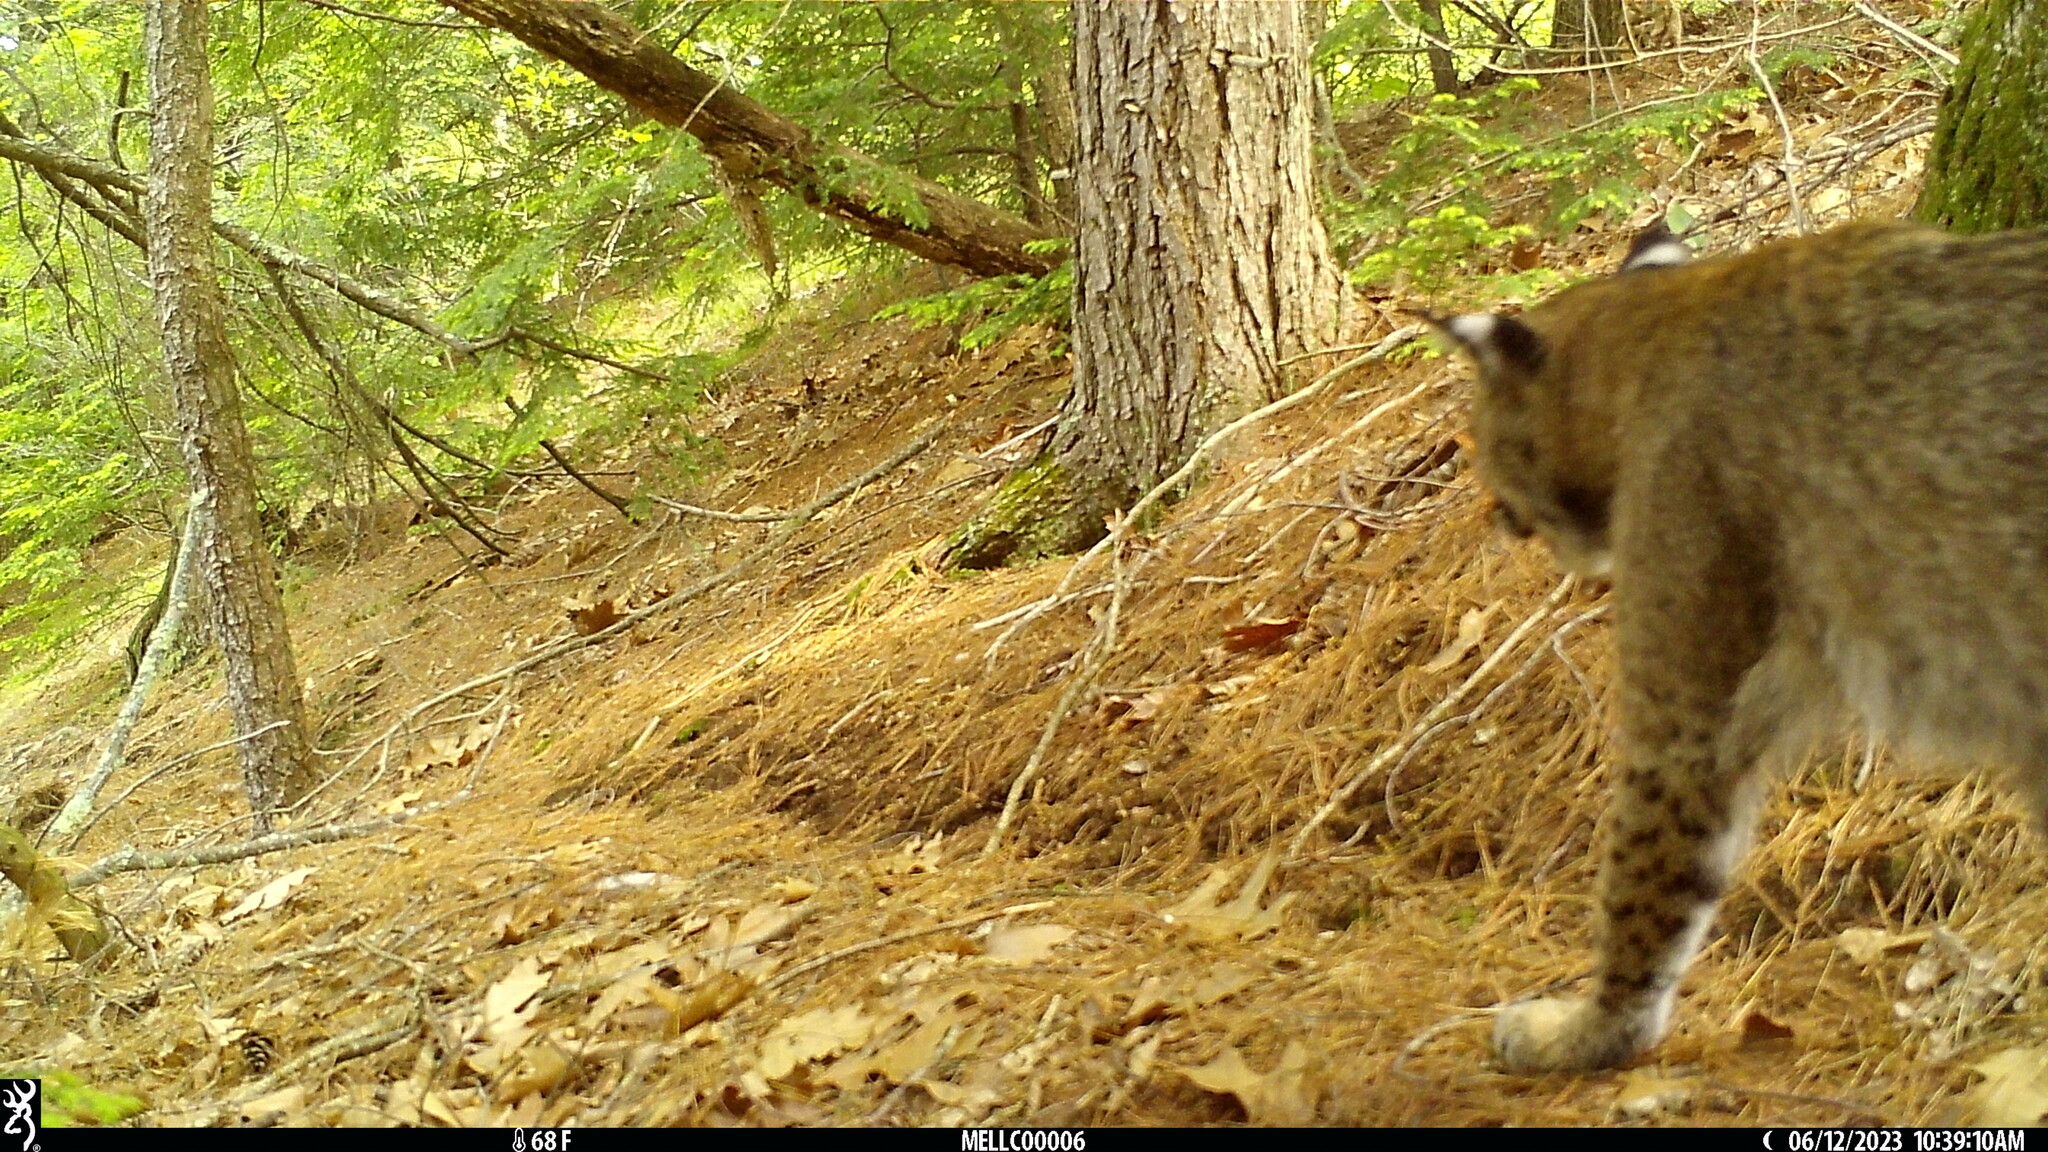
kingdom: Animalia
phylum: Chordata
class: Mammalia
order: Carnivora
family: Felidae
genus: Lynx
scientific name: Lynx rufus
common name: Bobcat
